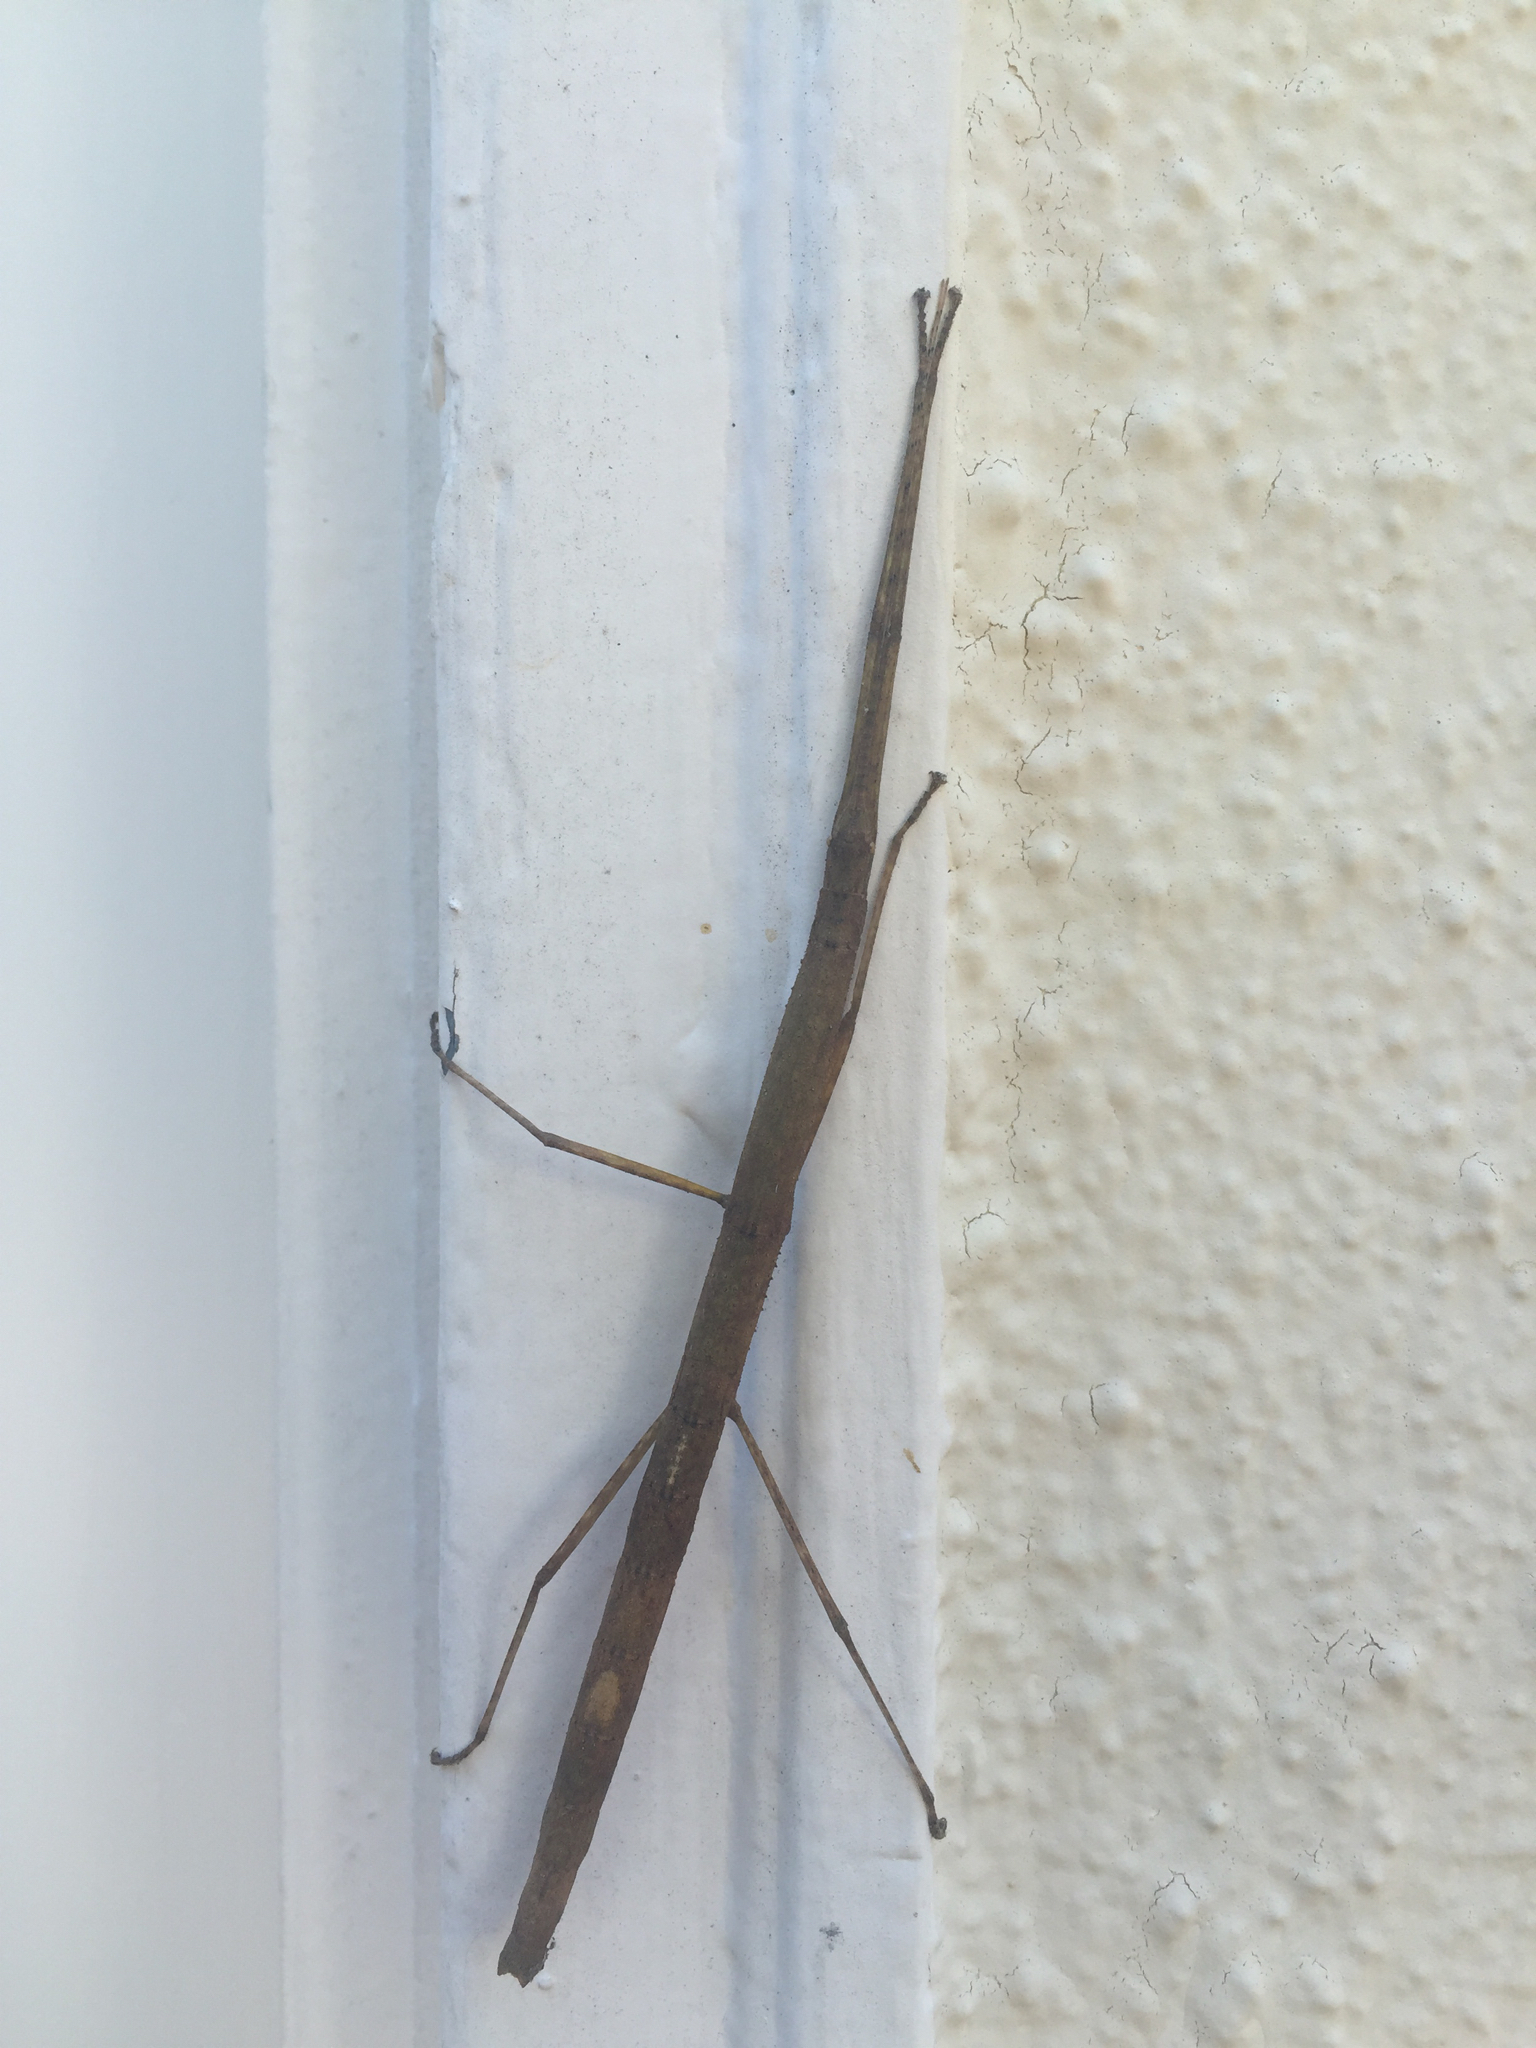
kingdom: Animalia
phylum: Arthropoda
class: Insecta
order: Phasmida
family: Lonchodidae
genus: Carausius
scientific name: Carausius morosus
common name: Indian stick insect
